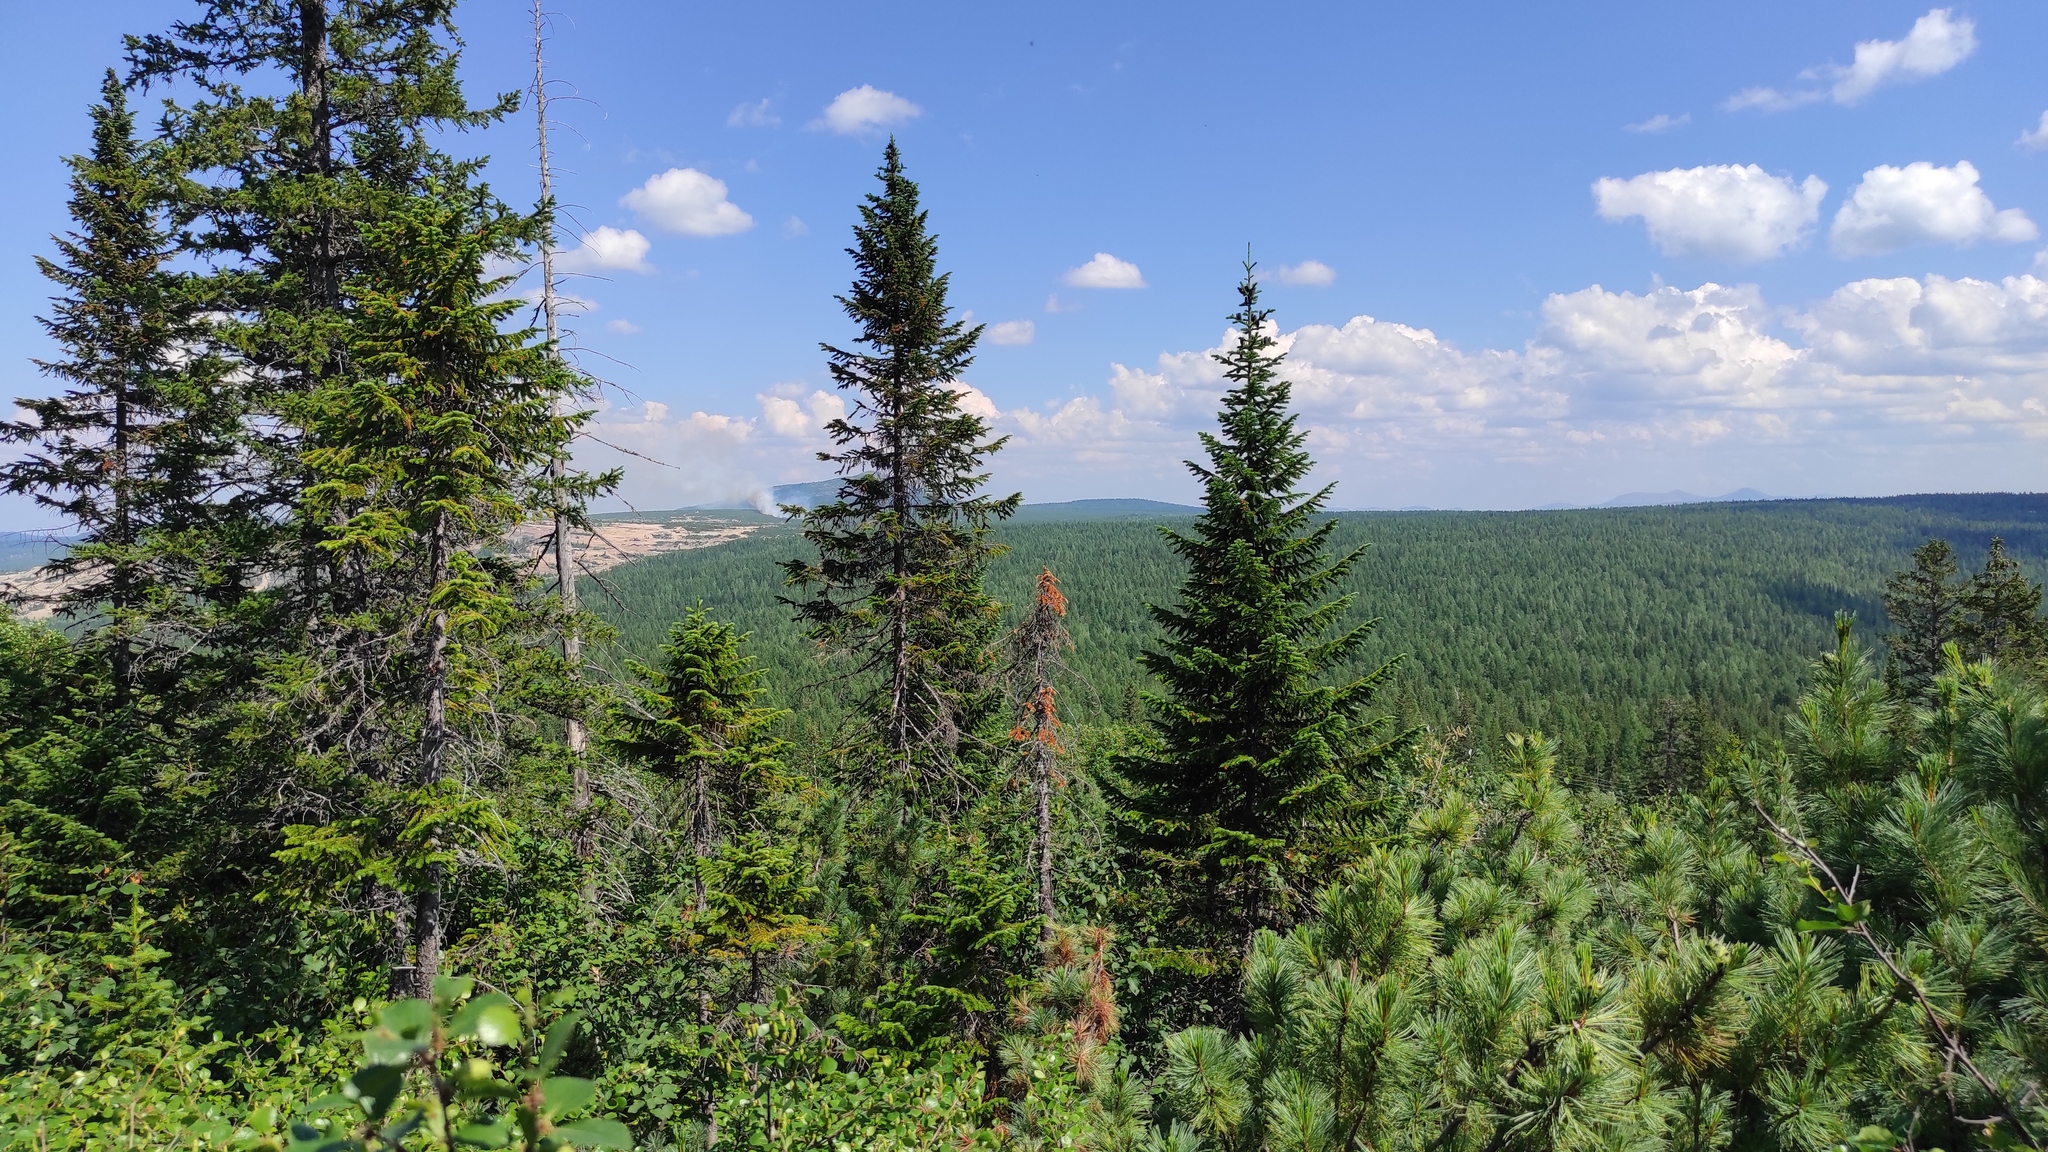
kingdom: Plantae
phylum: Tracheophyta
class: Pinopsida
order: Pinales
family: Pinaceae
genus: Pinus
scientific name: Pinus pumila
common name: Dwarf siberian pine
